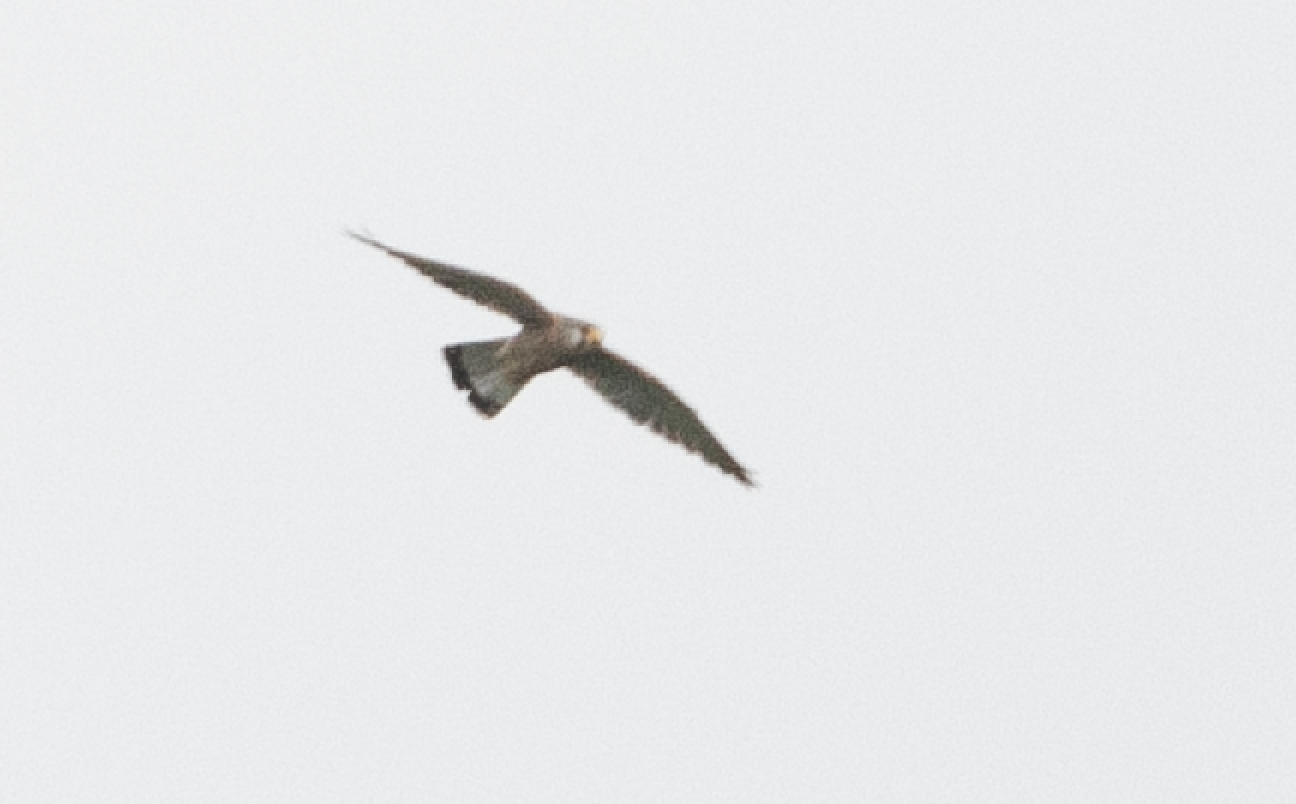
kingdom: Animalia
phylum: Chordata
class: Aves
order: Falconiformes
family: Falconidae
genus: Falco
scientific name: Falco tinnunculus
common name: Common kestrel
